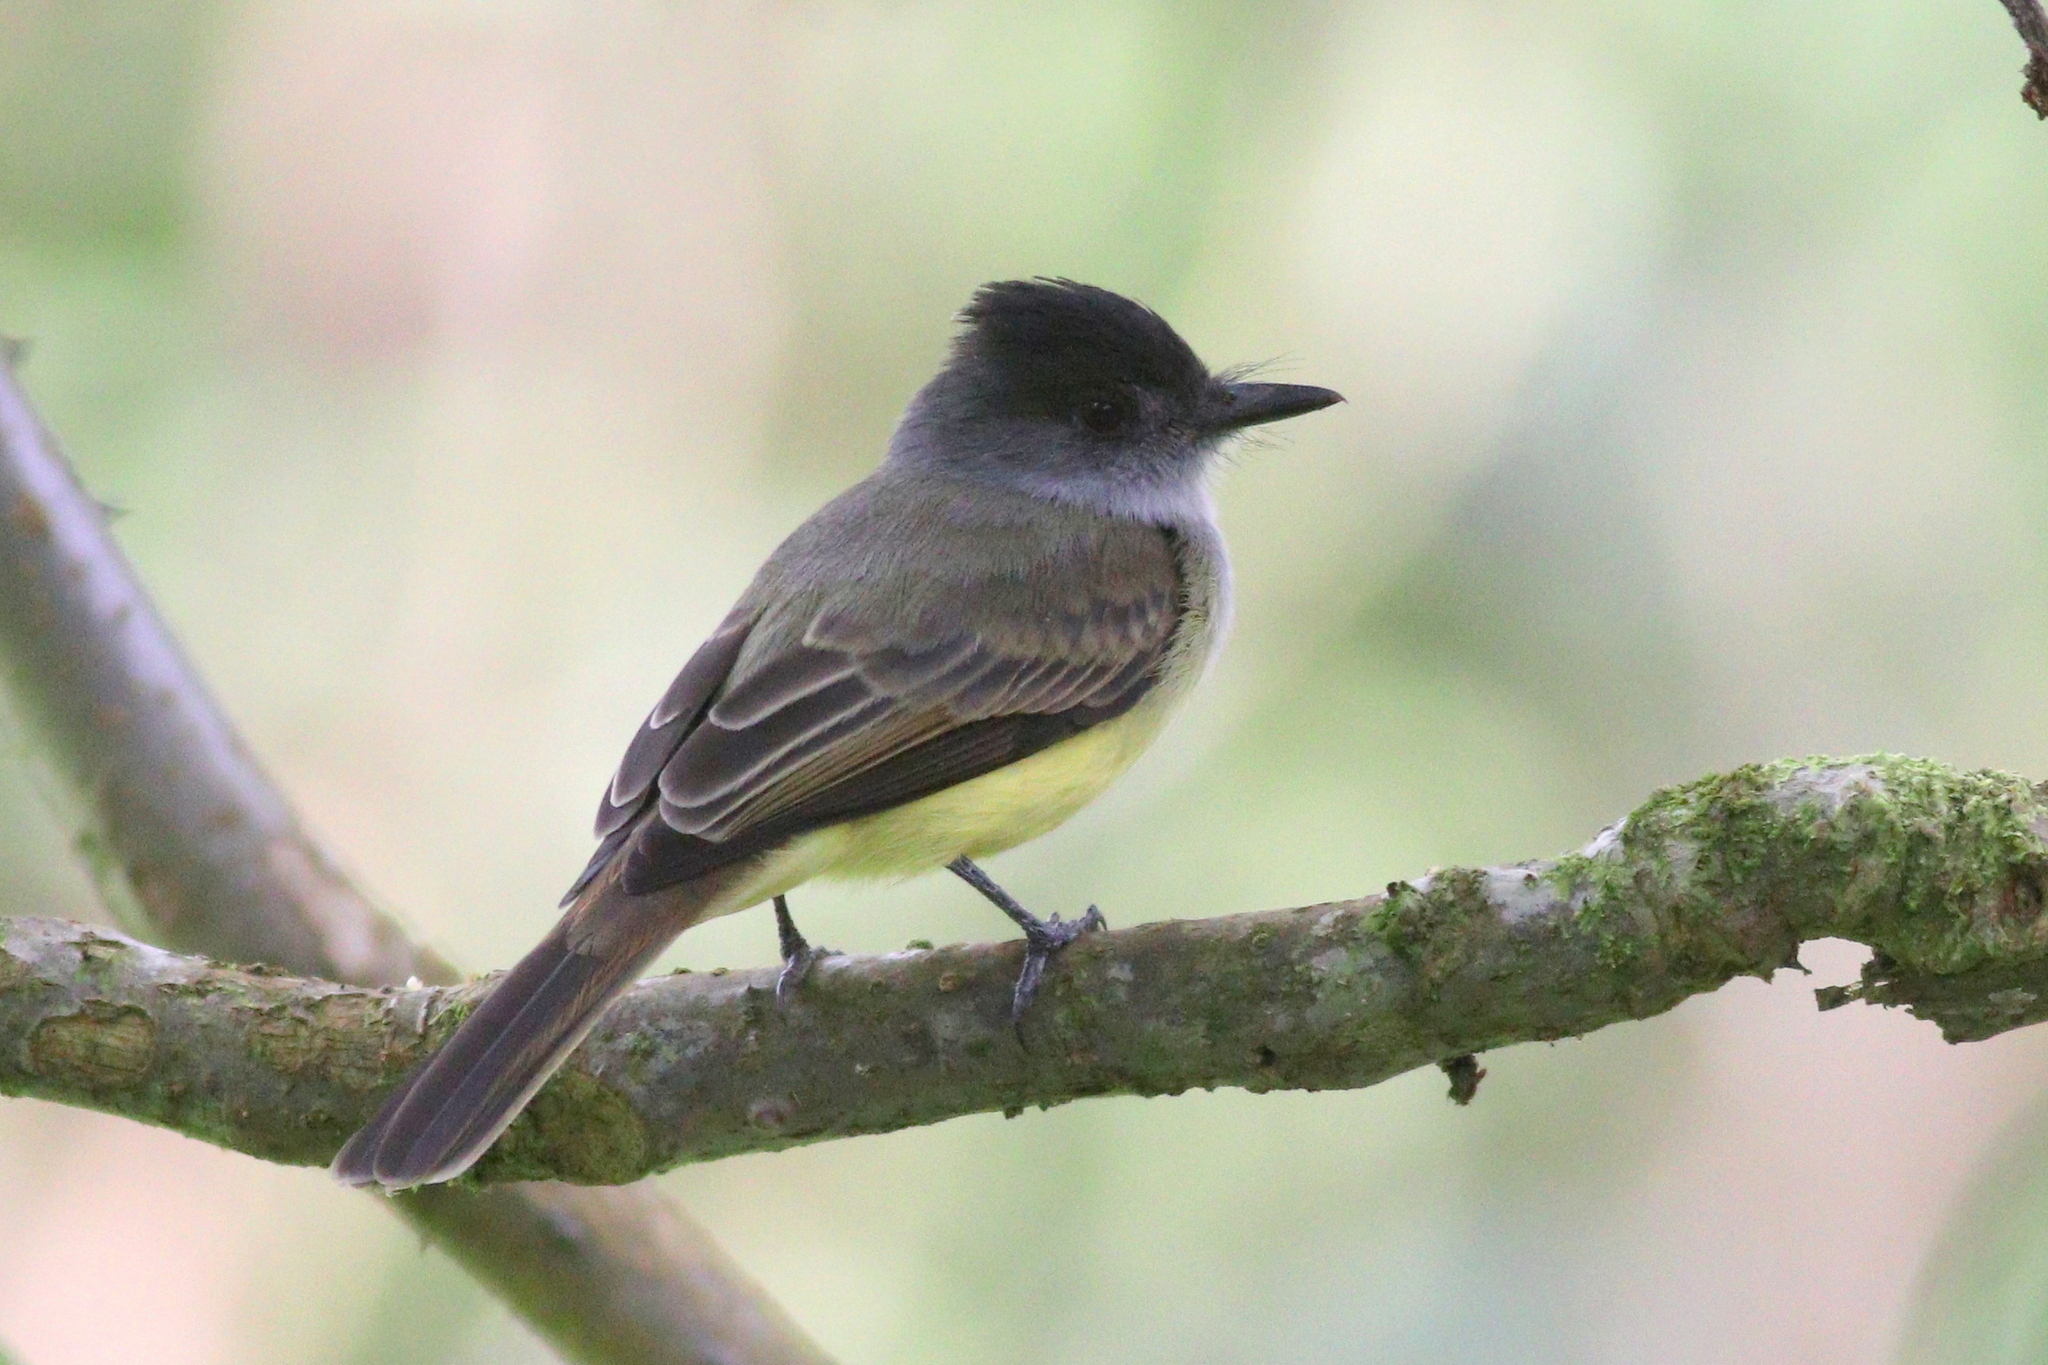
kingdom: Animalia
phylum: Chordata
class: Aves
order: Passeriformes
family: Tyrannidae
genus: Myiarchus
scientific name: Myiarchus tuberculifer
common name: Dusky-capped flycatcher
